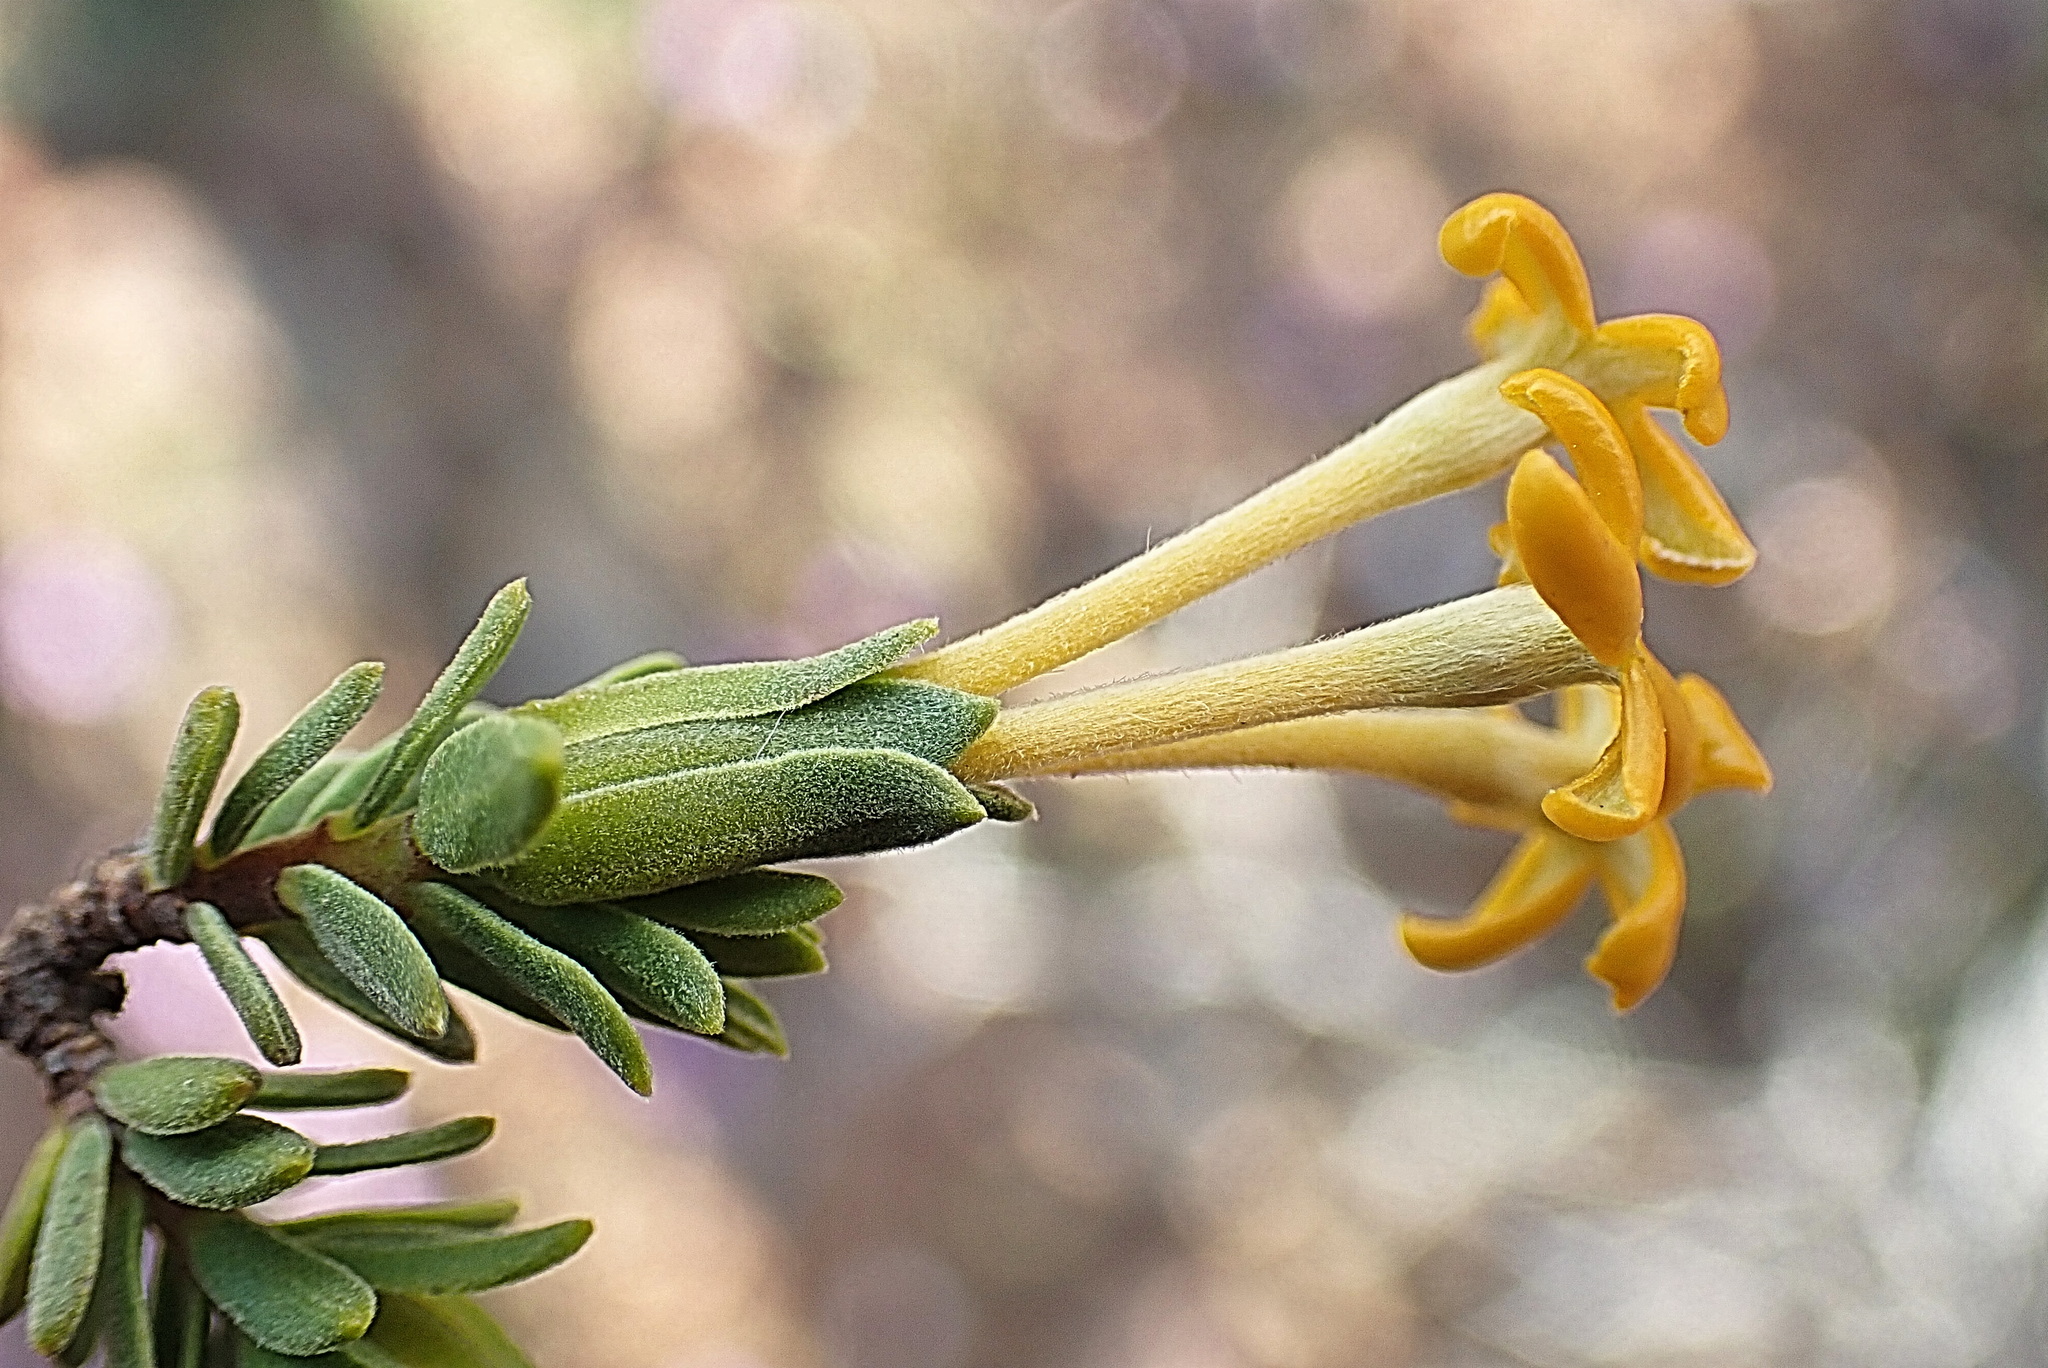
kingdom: Plantae
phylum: Tracheophyta
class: Magnoliopsida
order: Malvales
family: Thymelaeaceae
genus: Gnidia
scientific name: Gnidia deserticola
